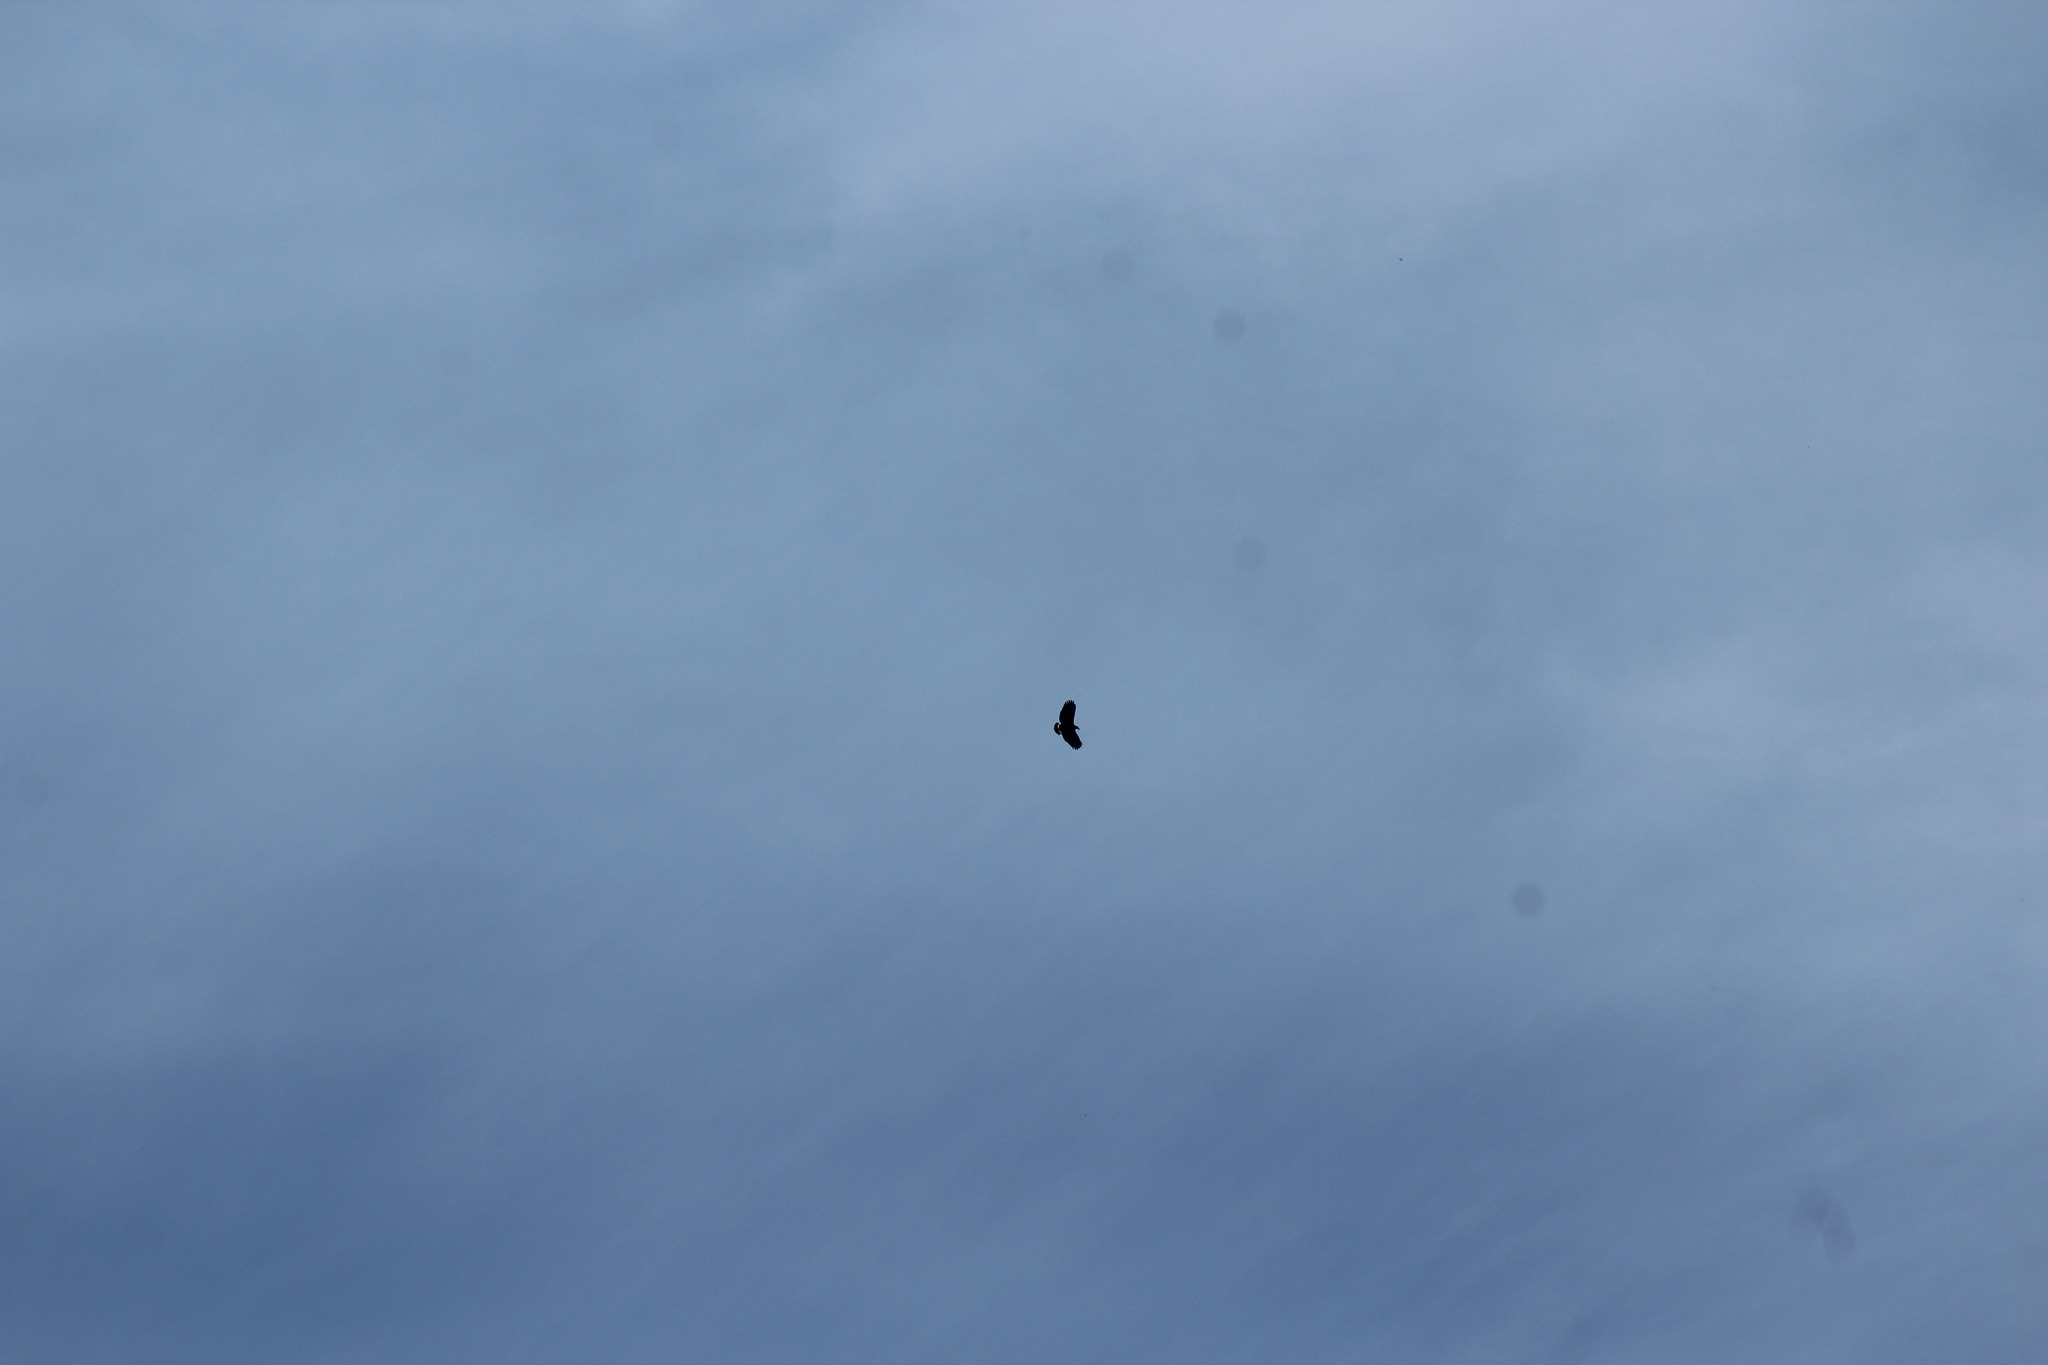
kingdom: Animalia
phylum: Chordata
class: Aves
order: Accipitriformes
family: Accipitridae
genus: Buteogallus
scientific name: Buteogallus anthracinus
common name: Common black hawk
